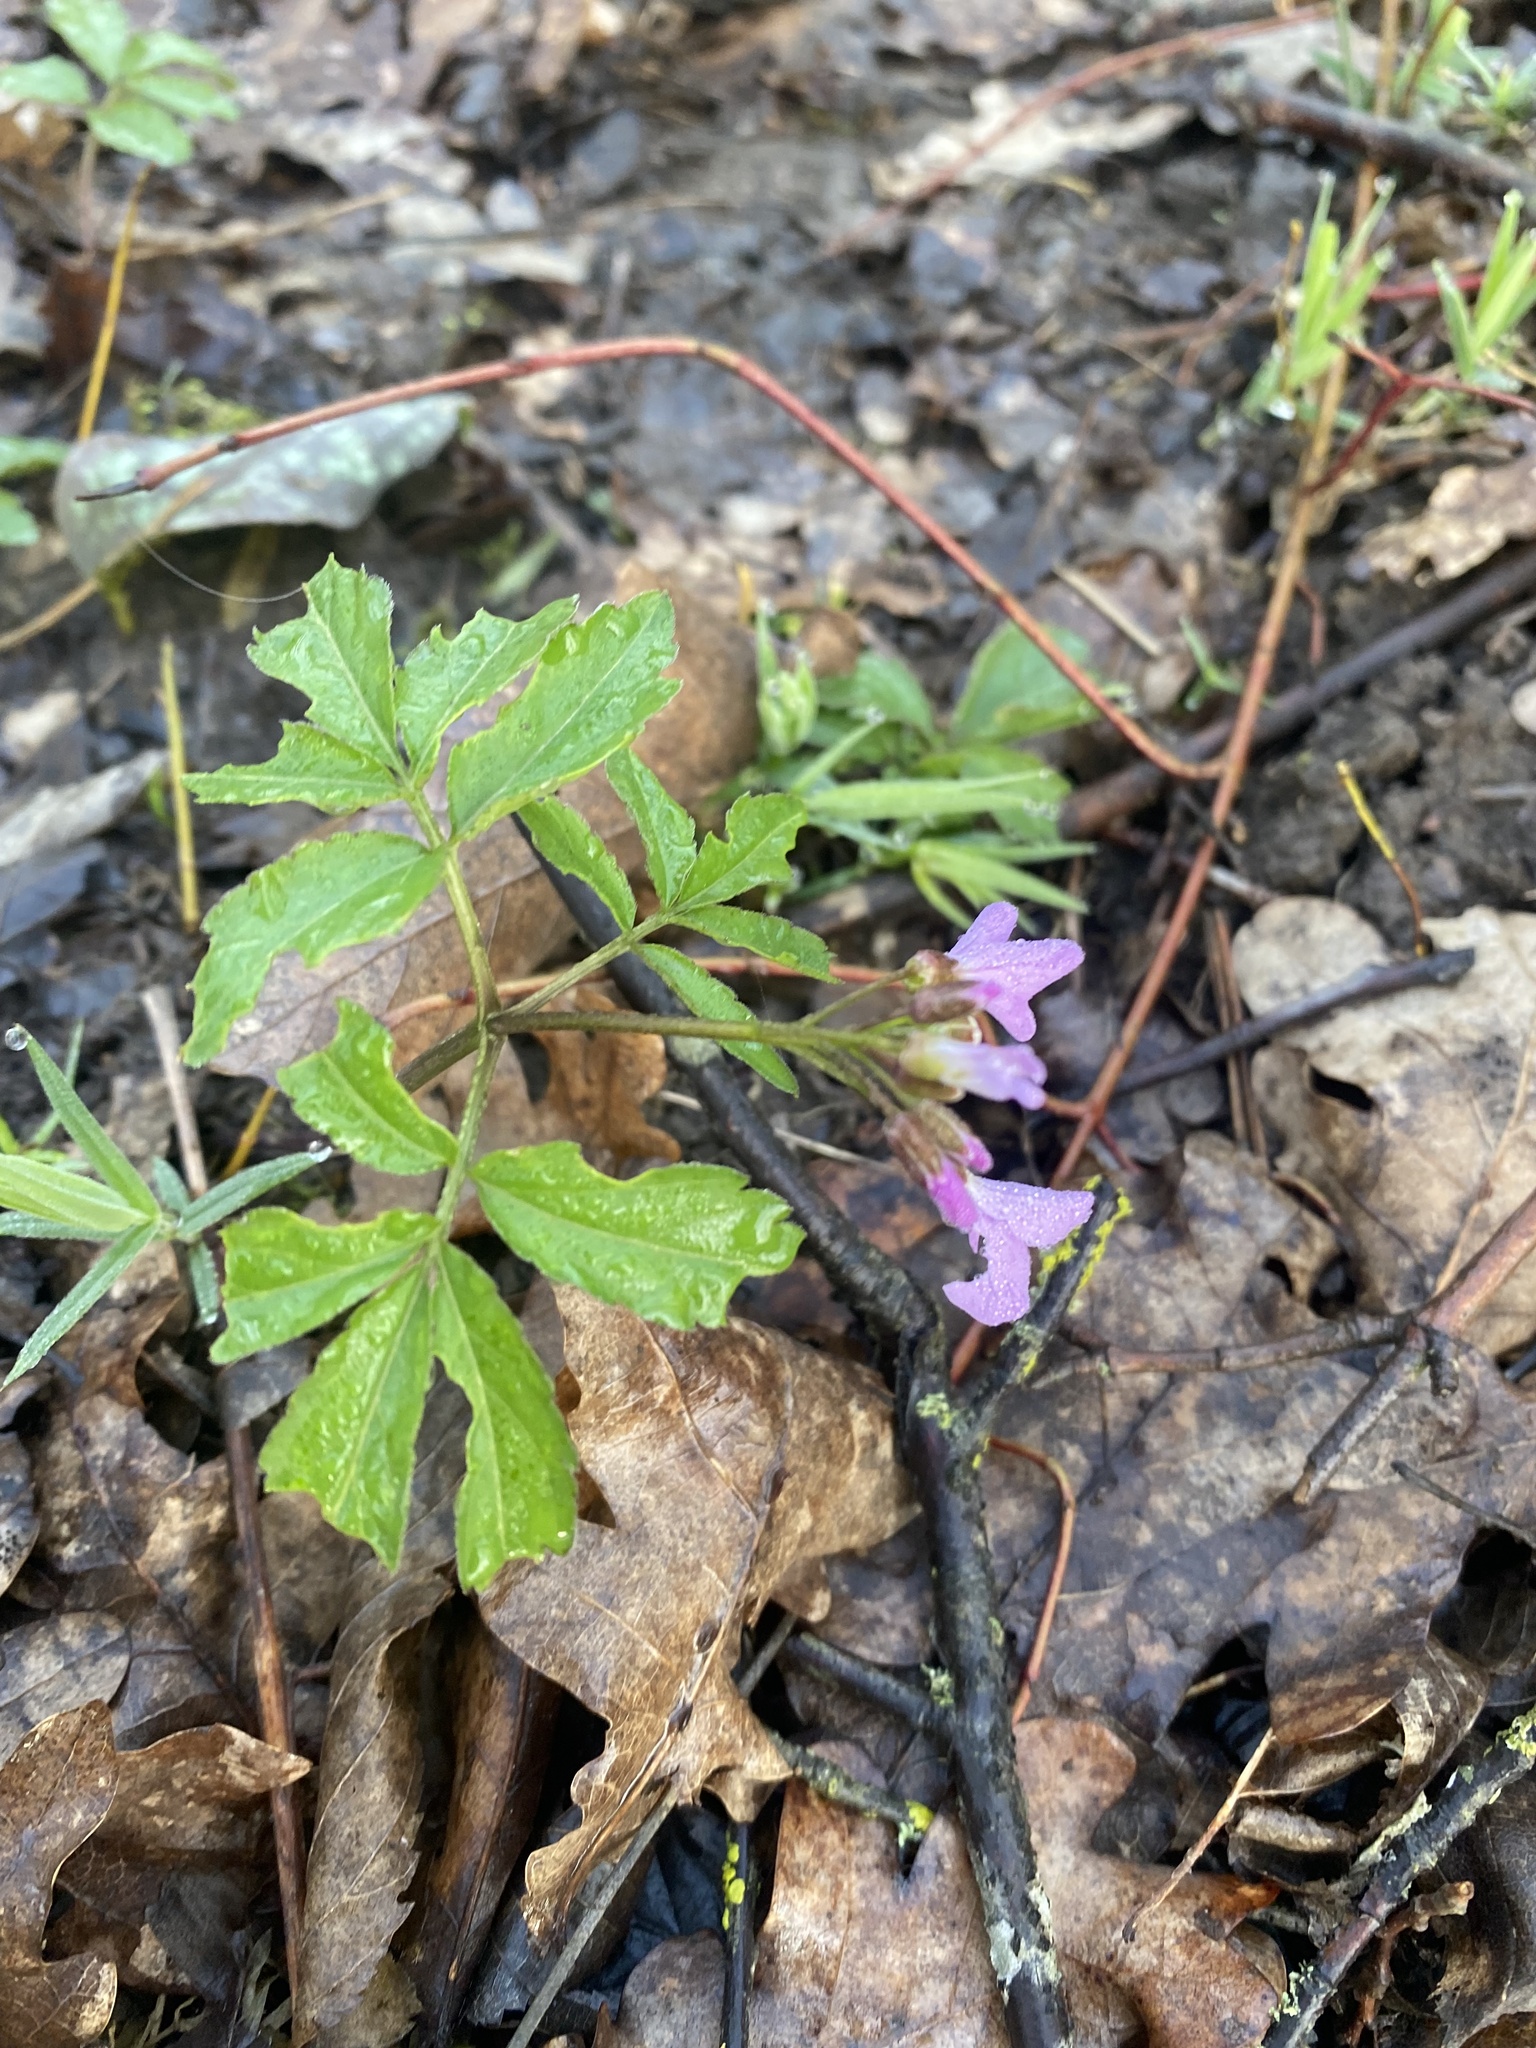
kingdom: Plantae
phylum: Tracheophyta
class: Magnoliopsida
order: Brassicales
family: Brassicaceae
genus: Cardamine
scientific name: Cardamine quinquefolia
